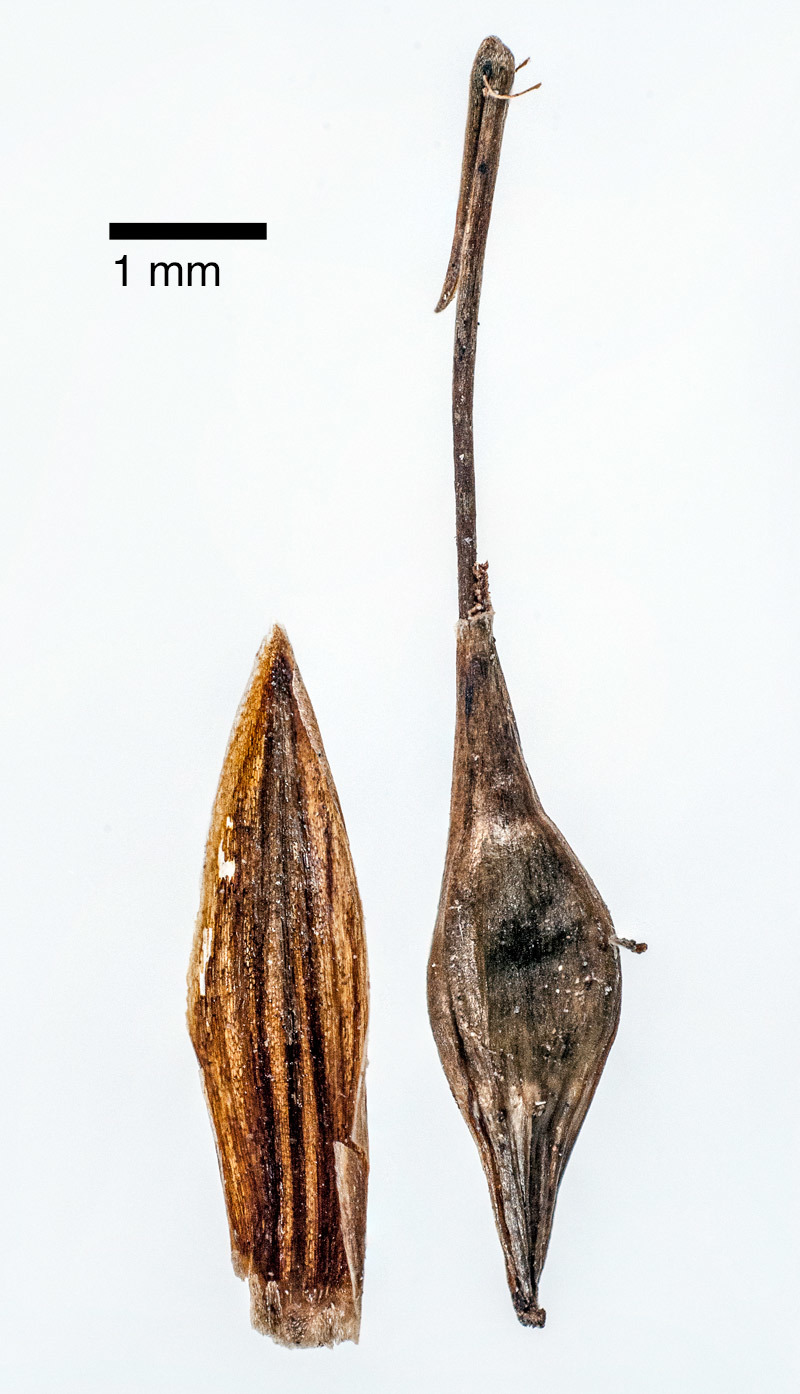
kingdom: Plantae
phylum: Tracheophyta
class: Liliopsida
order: Poales
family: Cyperaceae
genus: Carex
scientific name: Carex auceps
